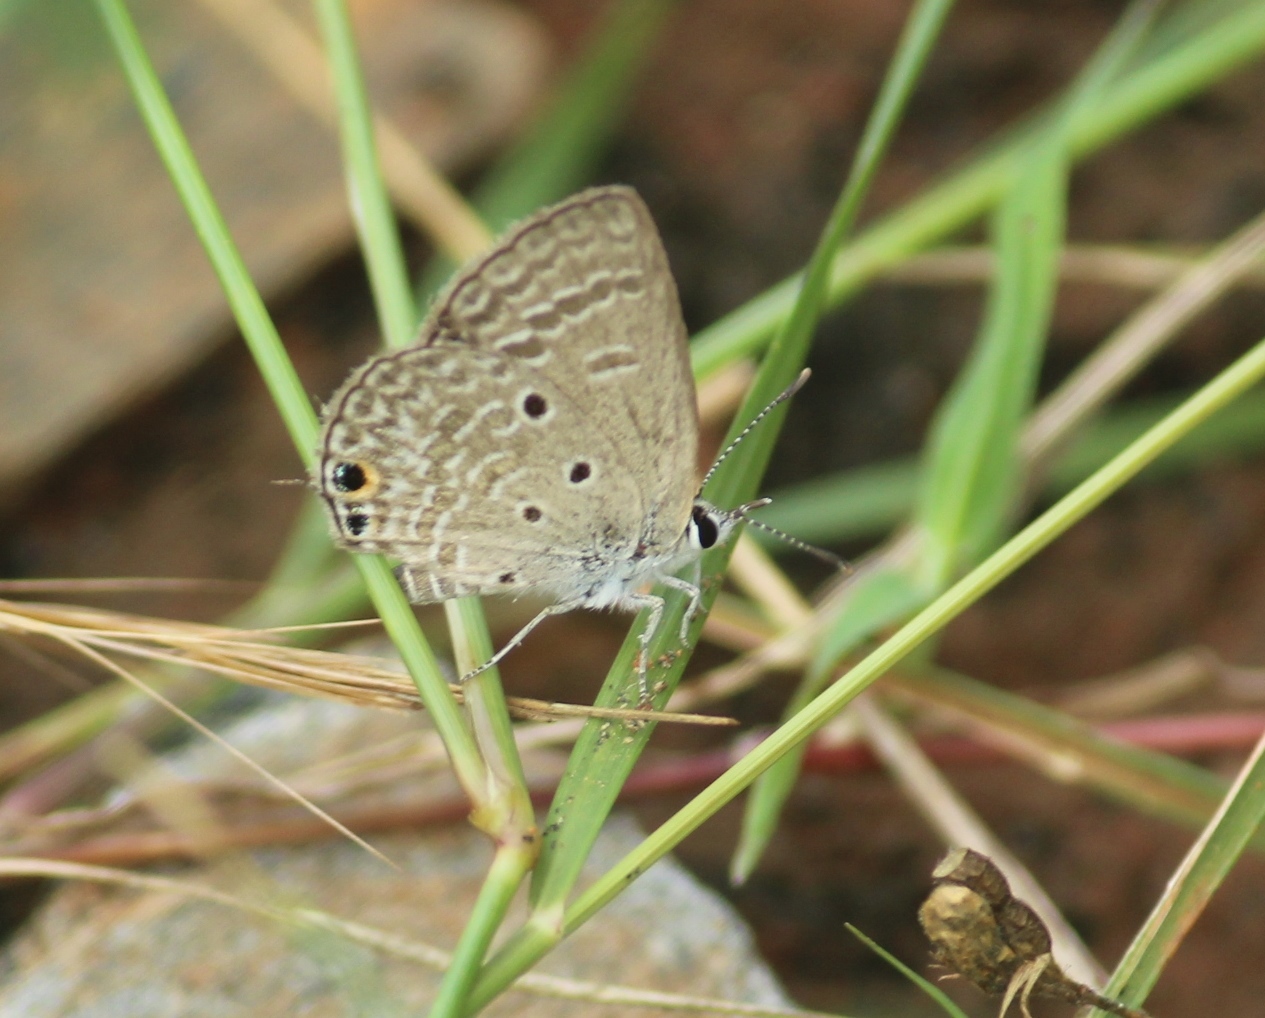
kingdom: Animalia
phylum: Arthropoda
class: Insecta
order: Lepidoptera
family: Lycaenidae
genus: Chilades
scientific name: Chilades parrhasius
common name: Small cupid
